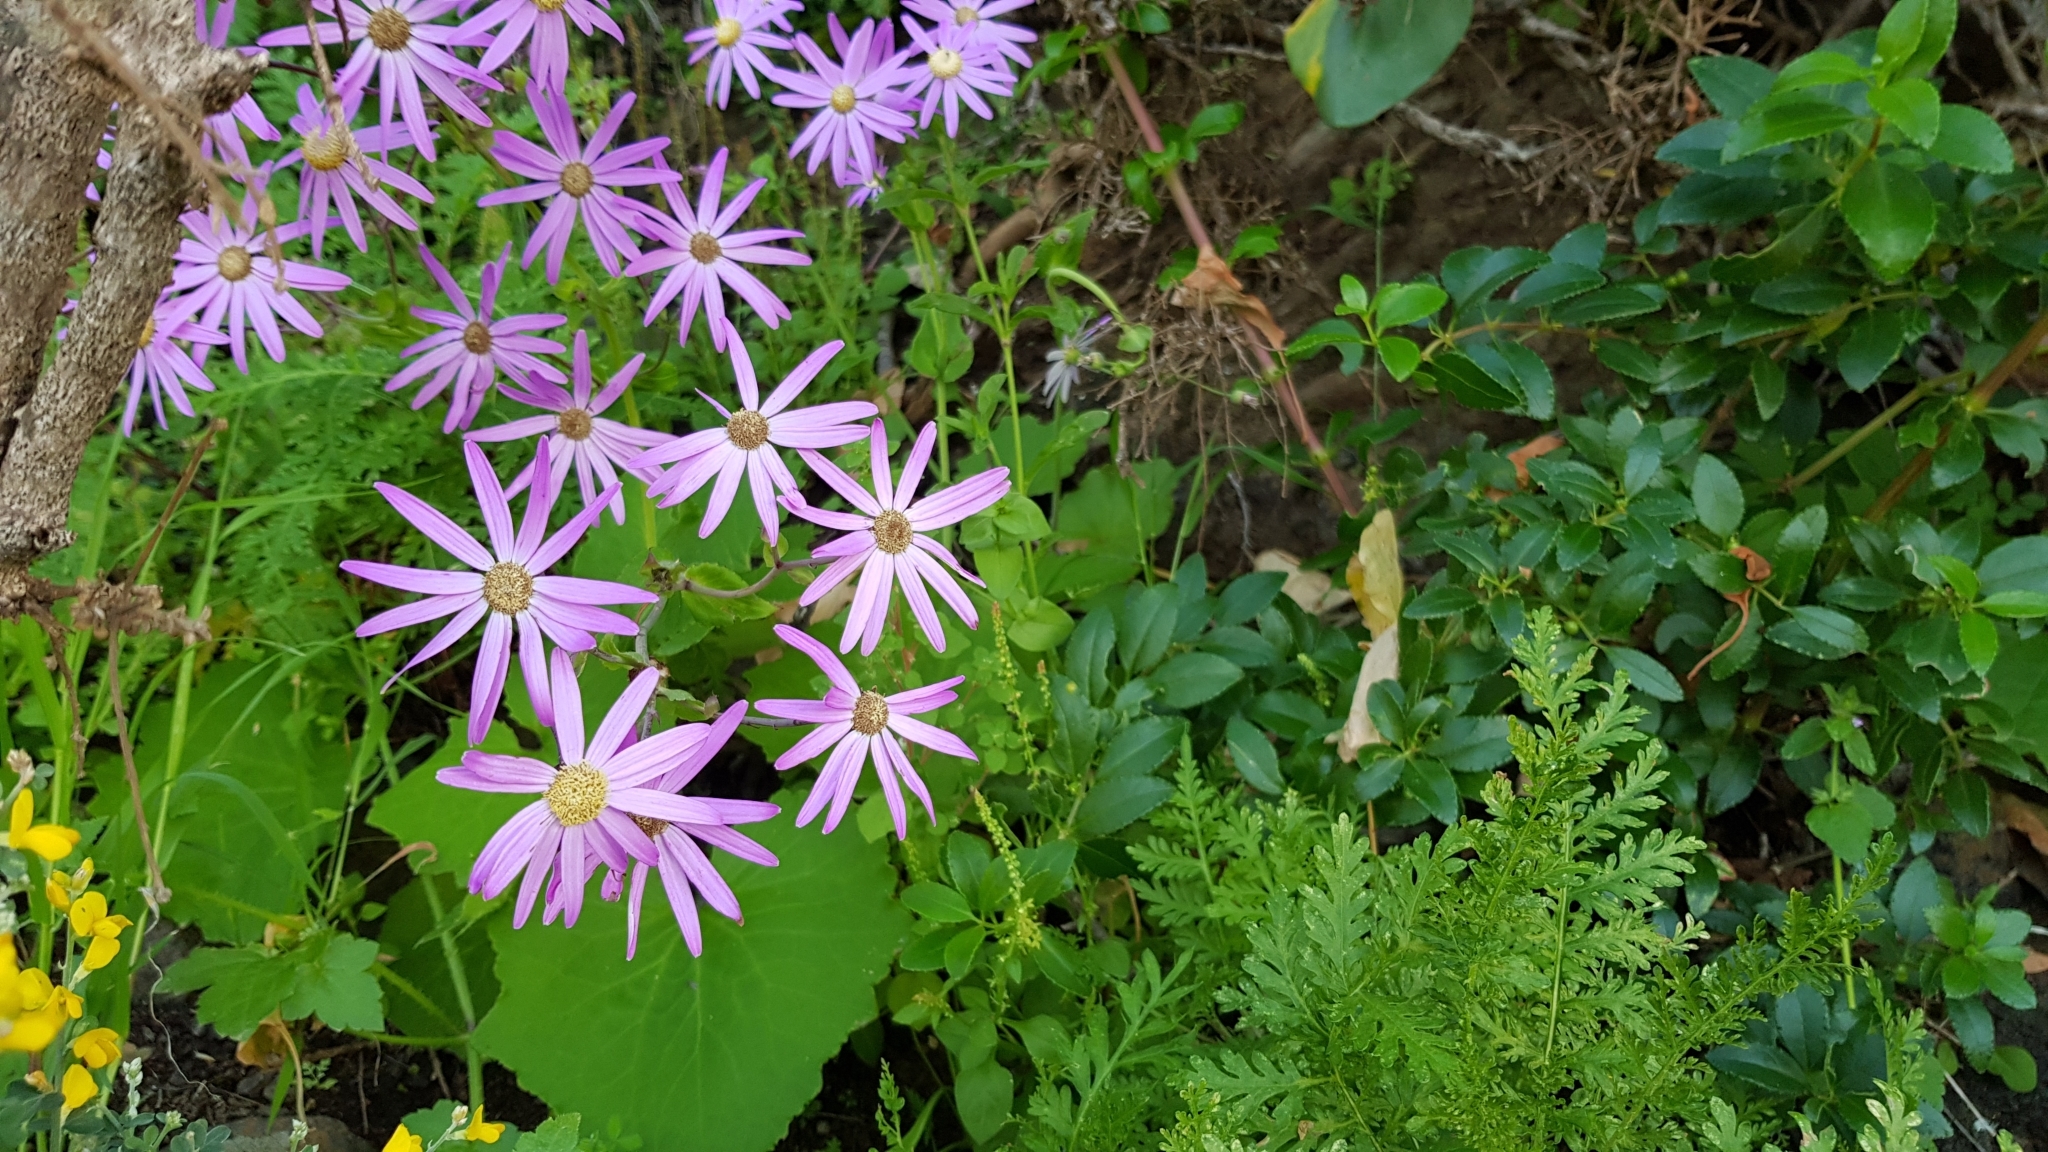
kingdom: Plantae
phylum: Tracheophyta
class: Magnoliopsida
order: Asterales
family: Asteraceae
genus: Pericallis
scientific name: Pericallis tussilaginis
